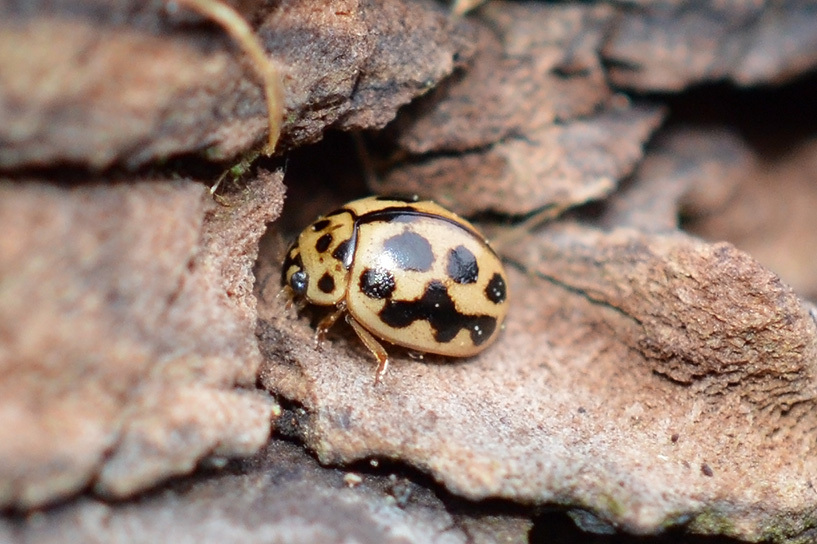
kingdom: Animalia
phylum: Arthropoda
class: Insecta
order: Coleoptera
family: Coccinellidae
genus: Tytthaspis
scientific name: Tytthaspis sedecimpunctata
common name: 16-spot ladybird
